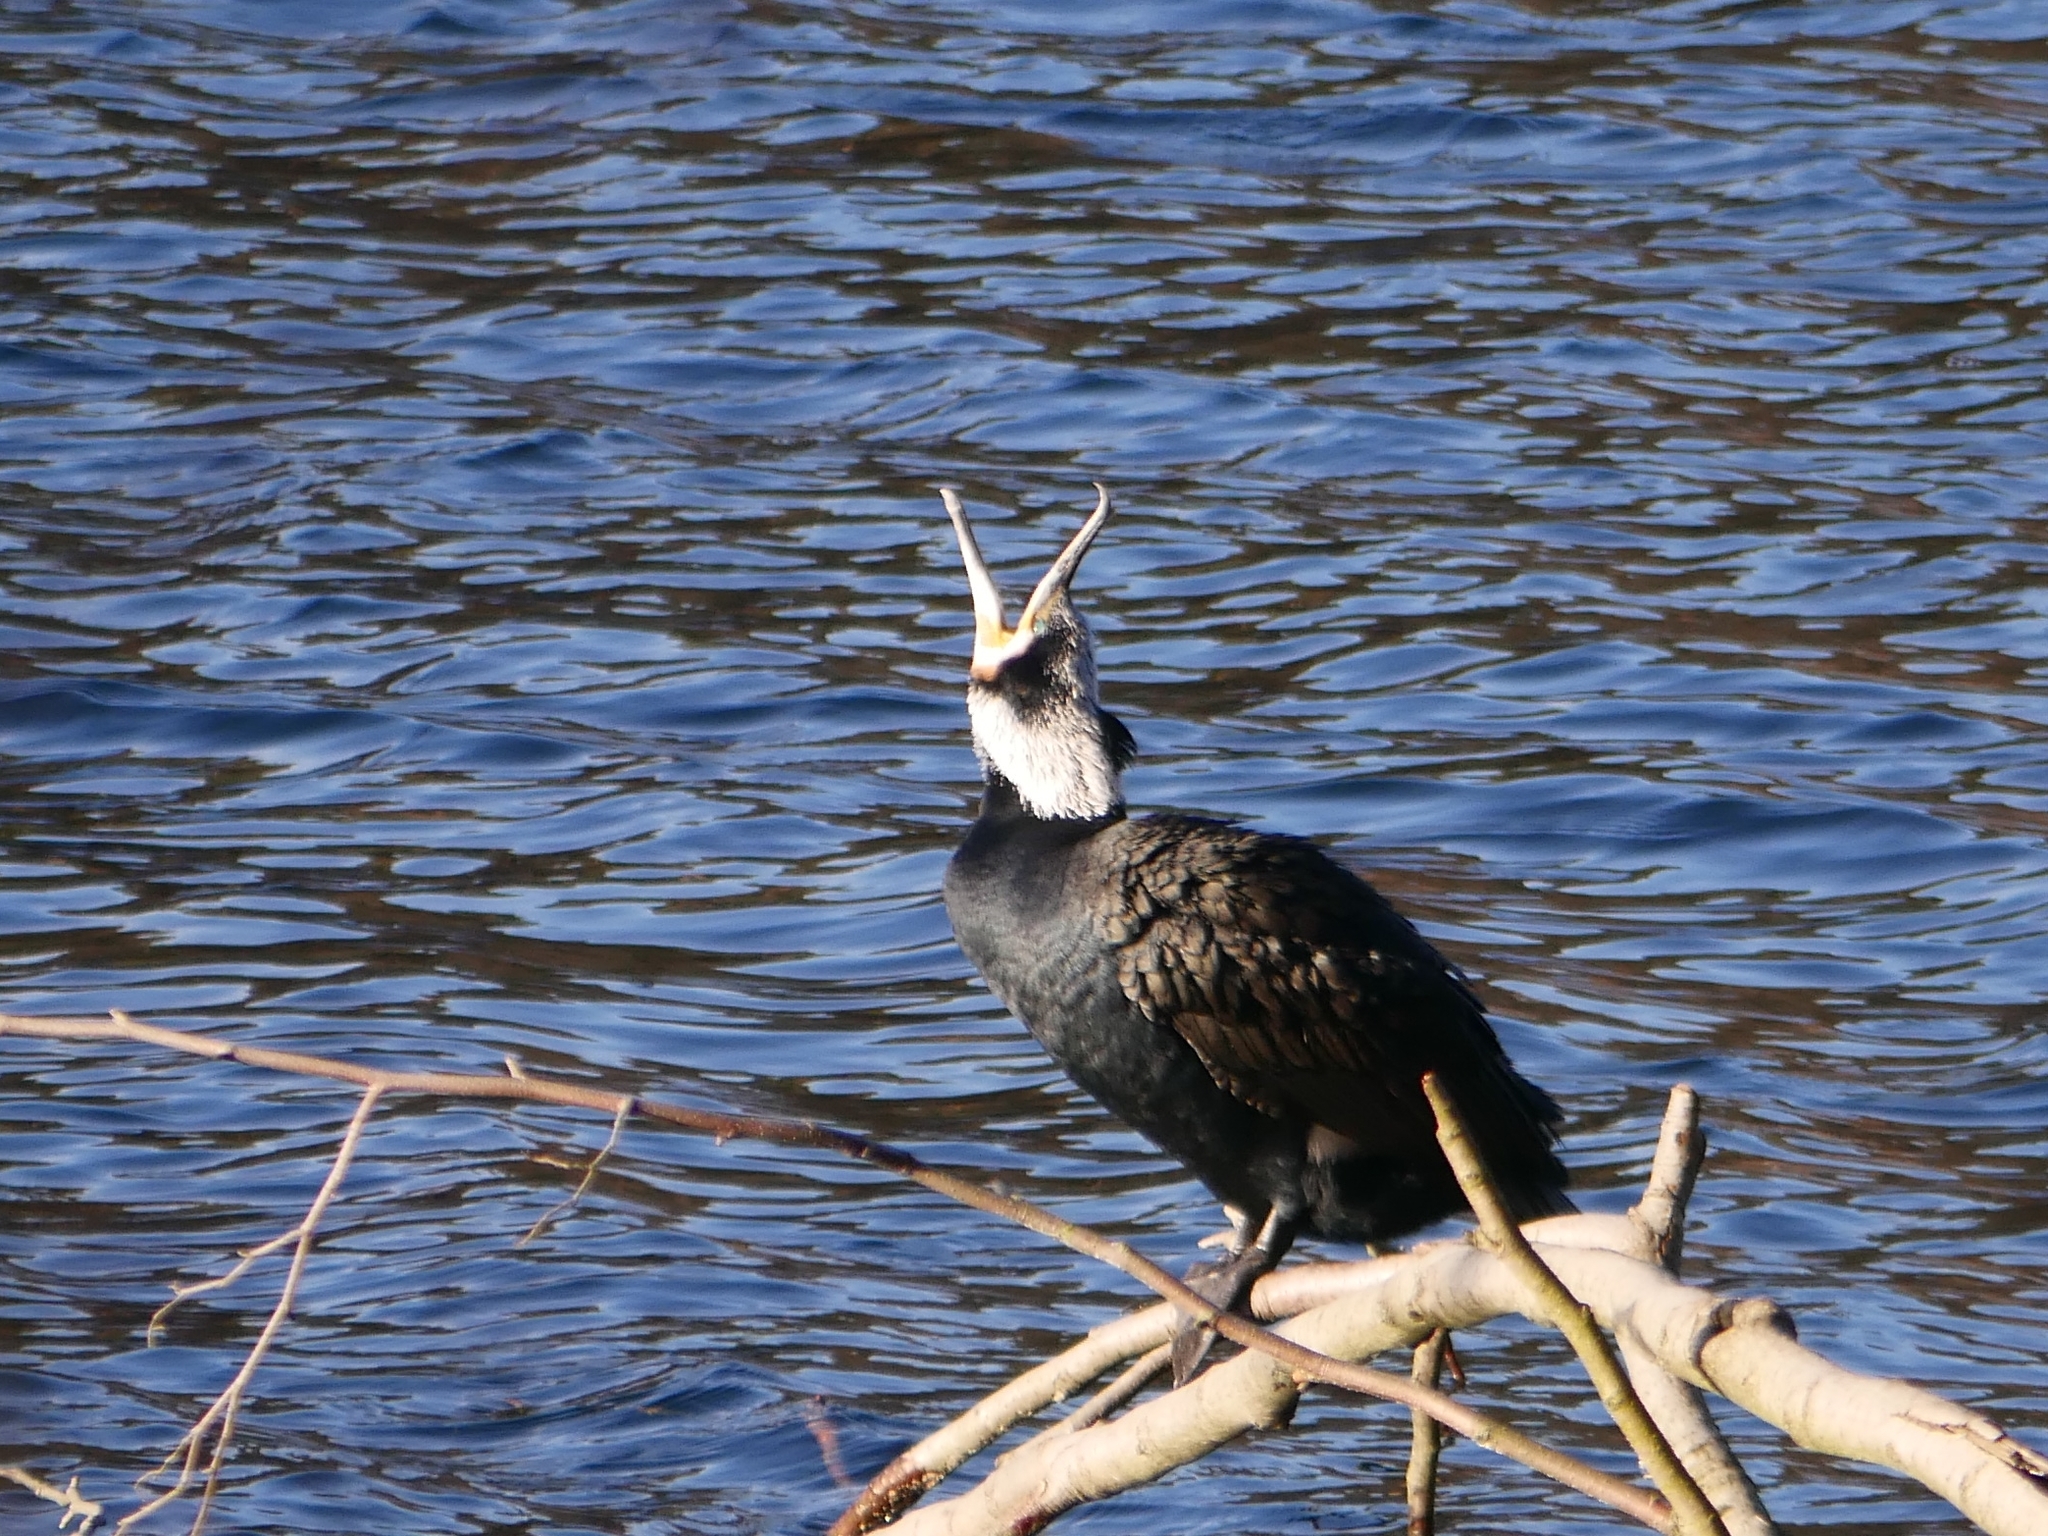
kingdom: Animalia
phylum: Chordata
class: Aves
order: Suliformes
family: Phalacrocoracidae
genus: Phalacrocorax
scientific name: Phalacrocorax carbo
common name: Great cormorant
